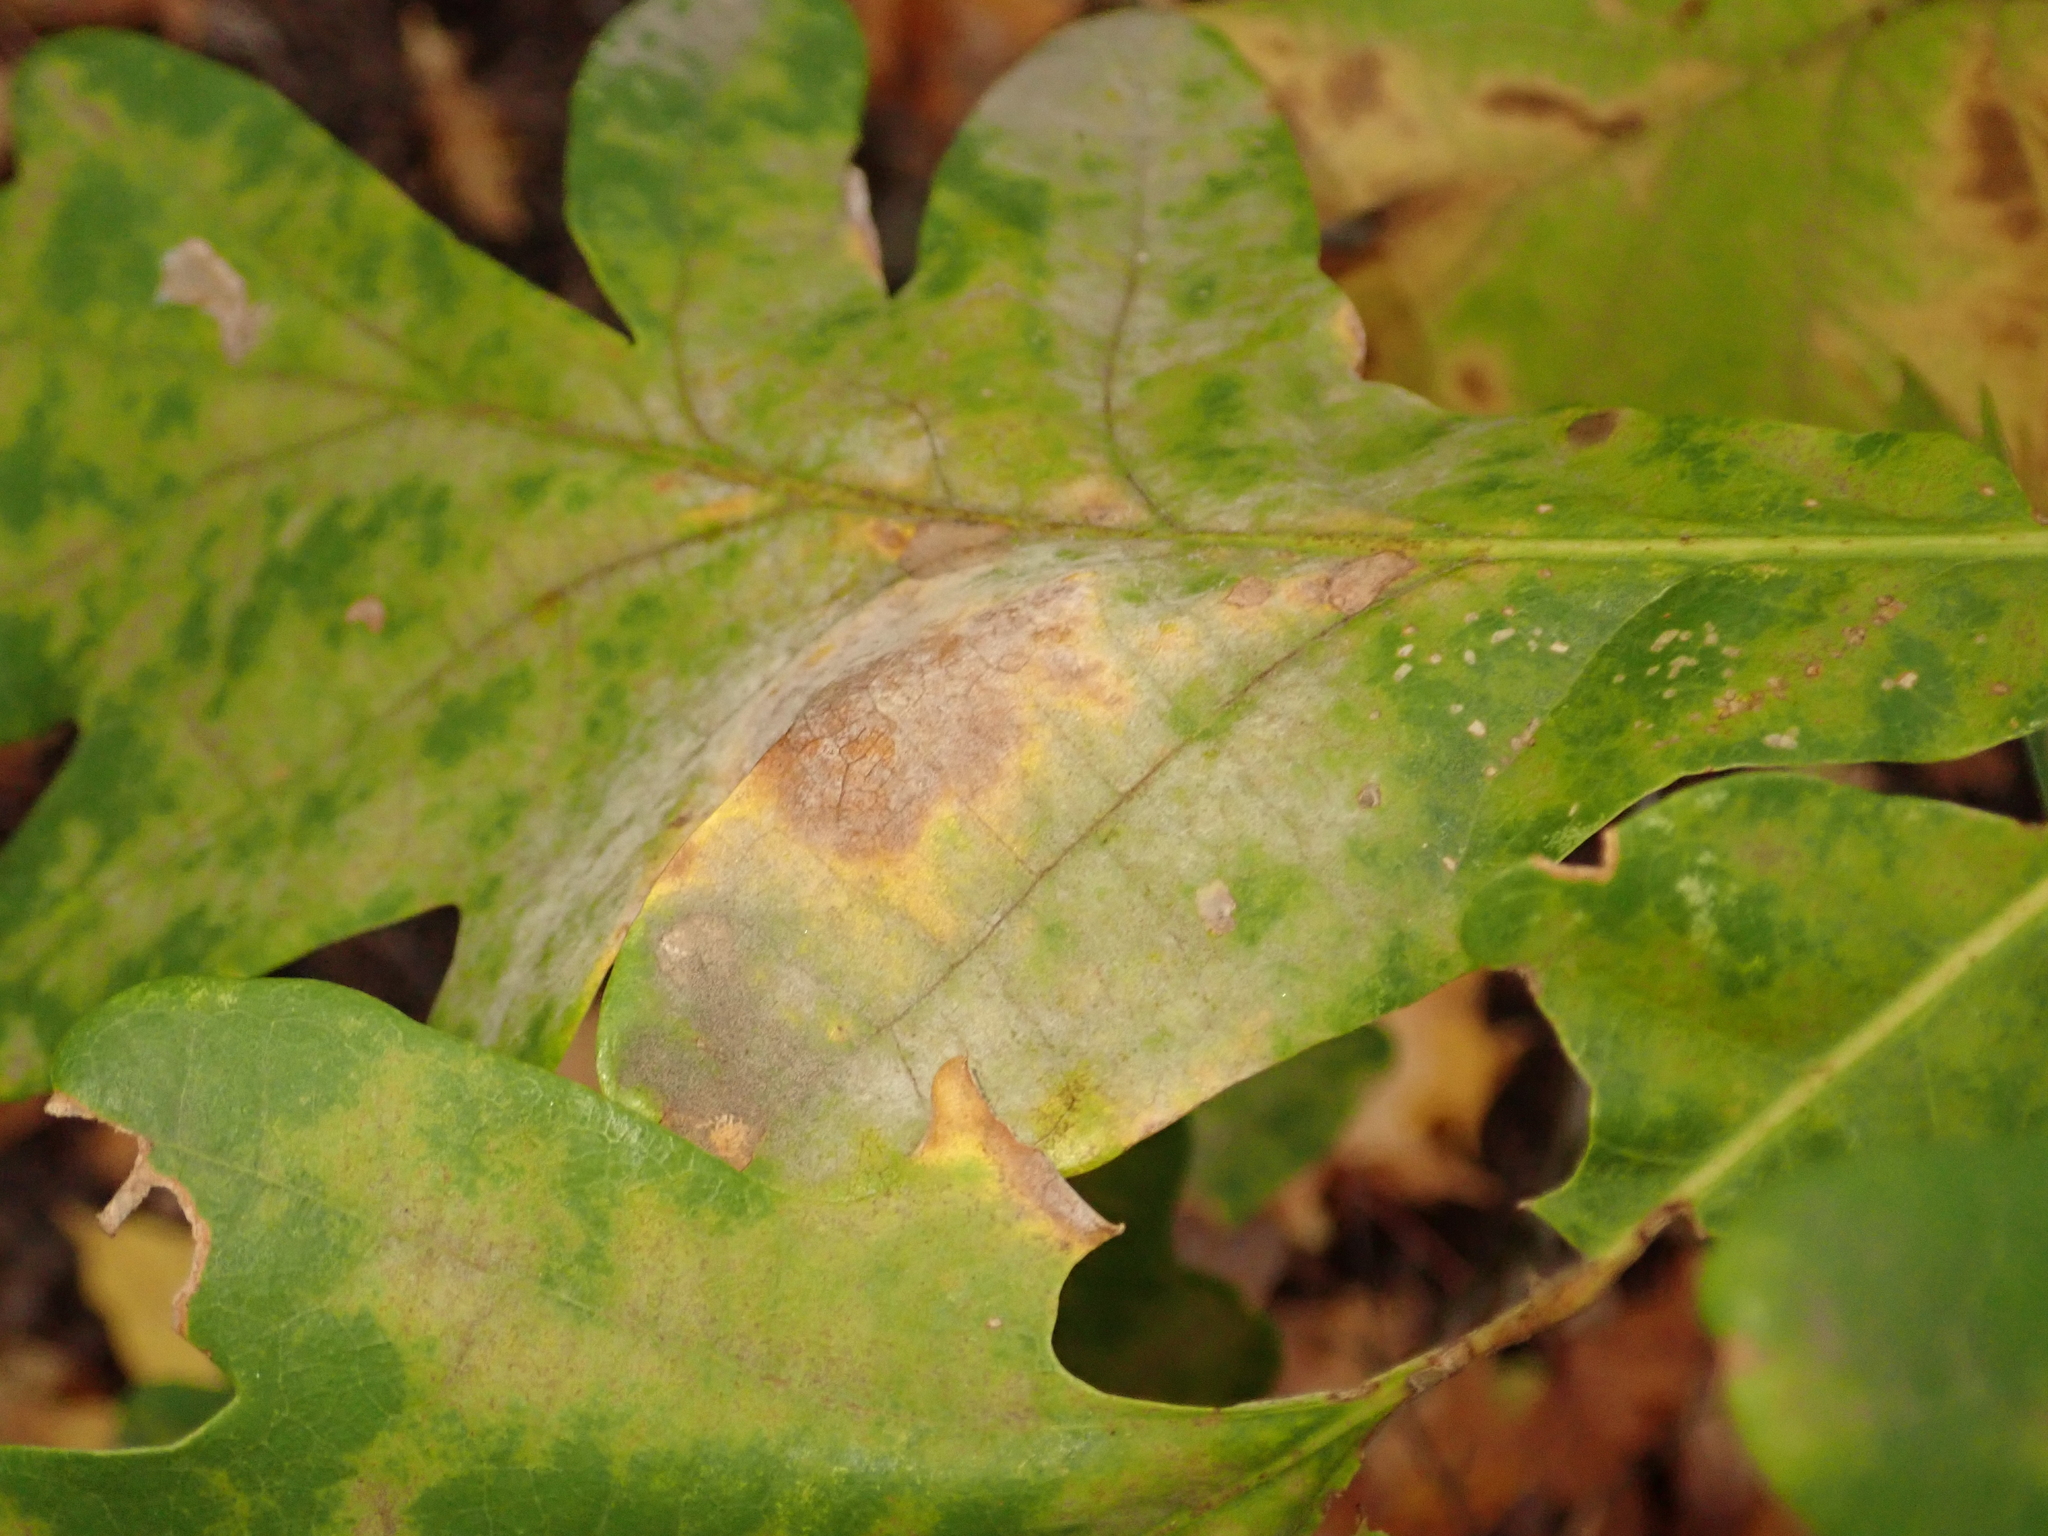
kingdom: Fungi
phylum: Ascomycota
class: Leotiomycetes
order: Helotiales
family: Erysiphaceae
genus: Erysiphe
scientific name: Erysiphe
